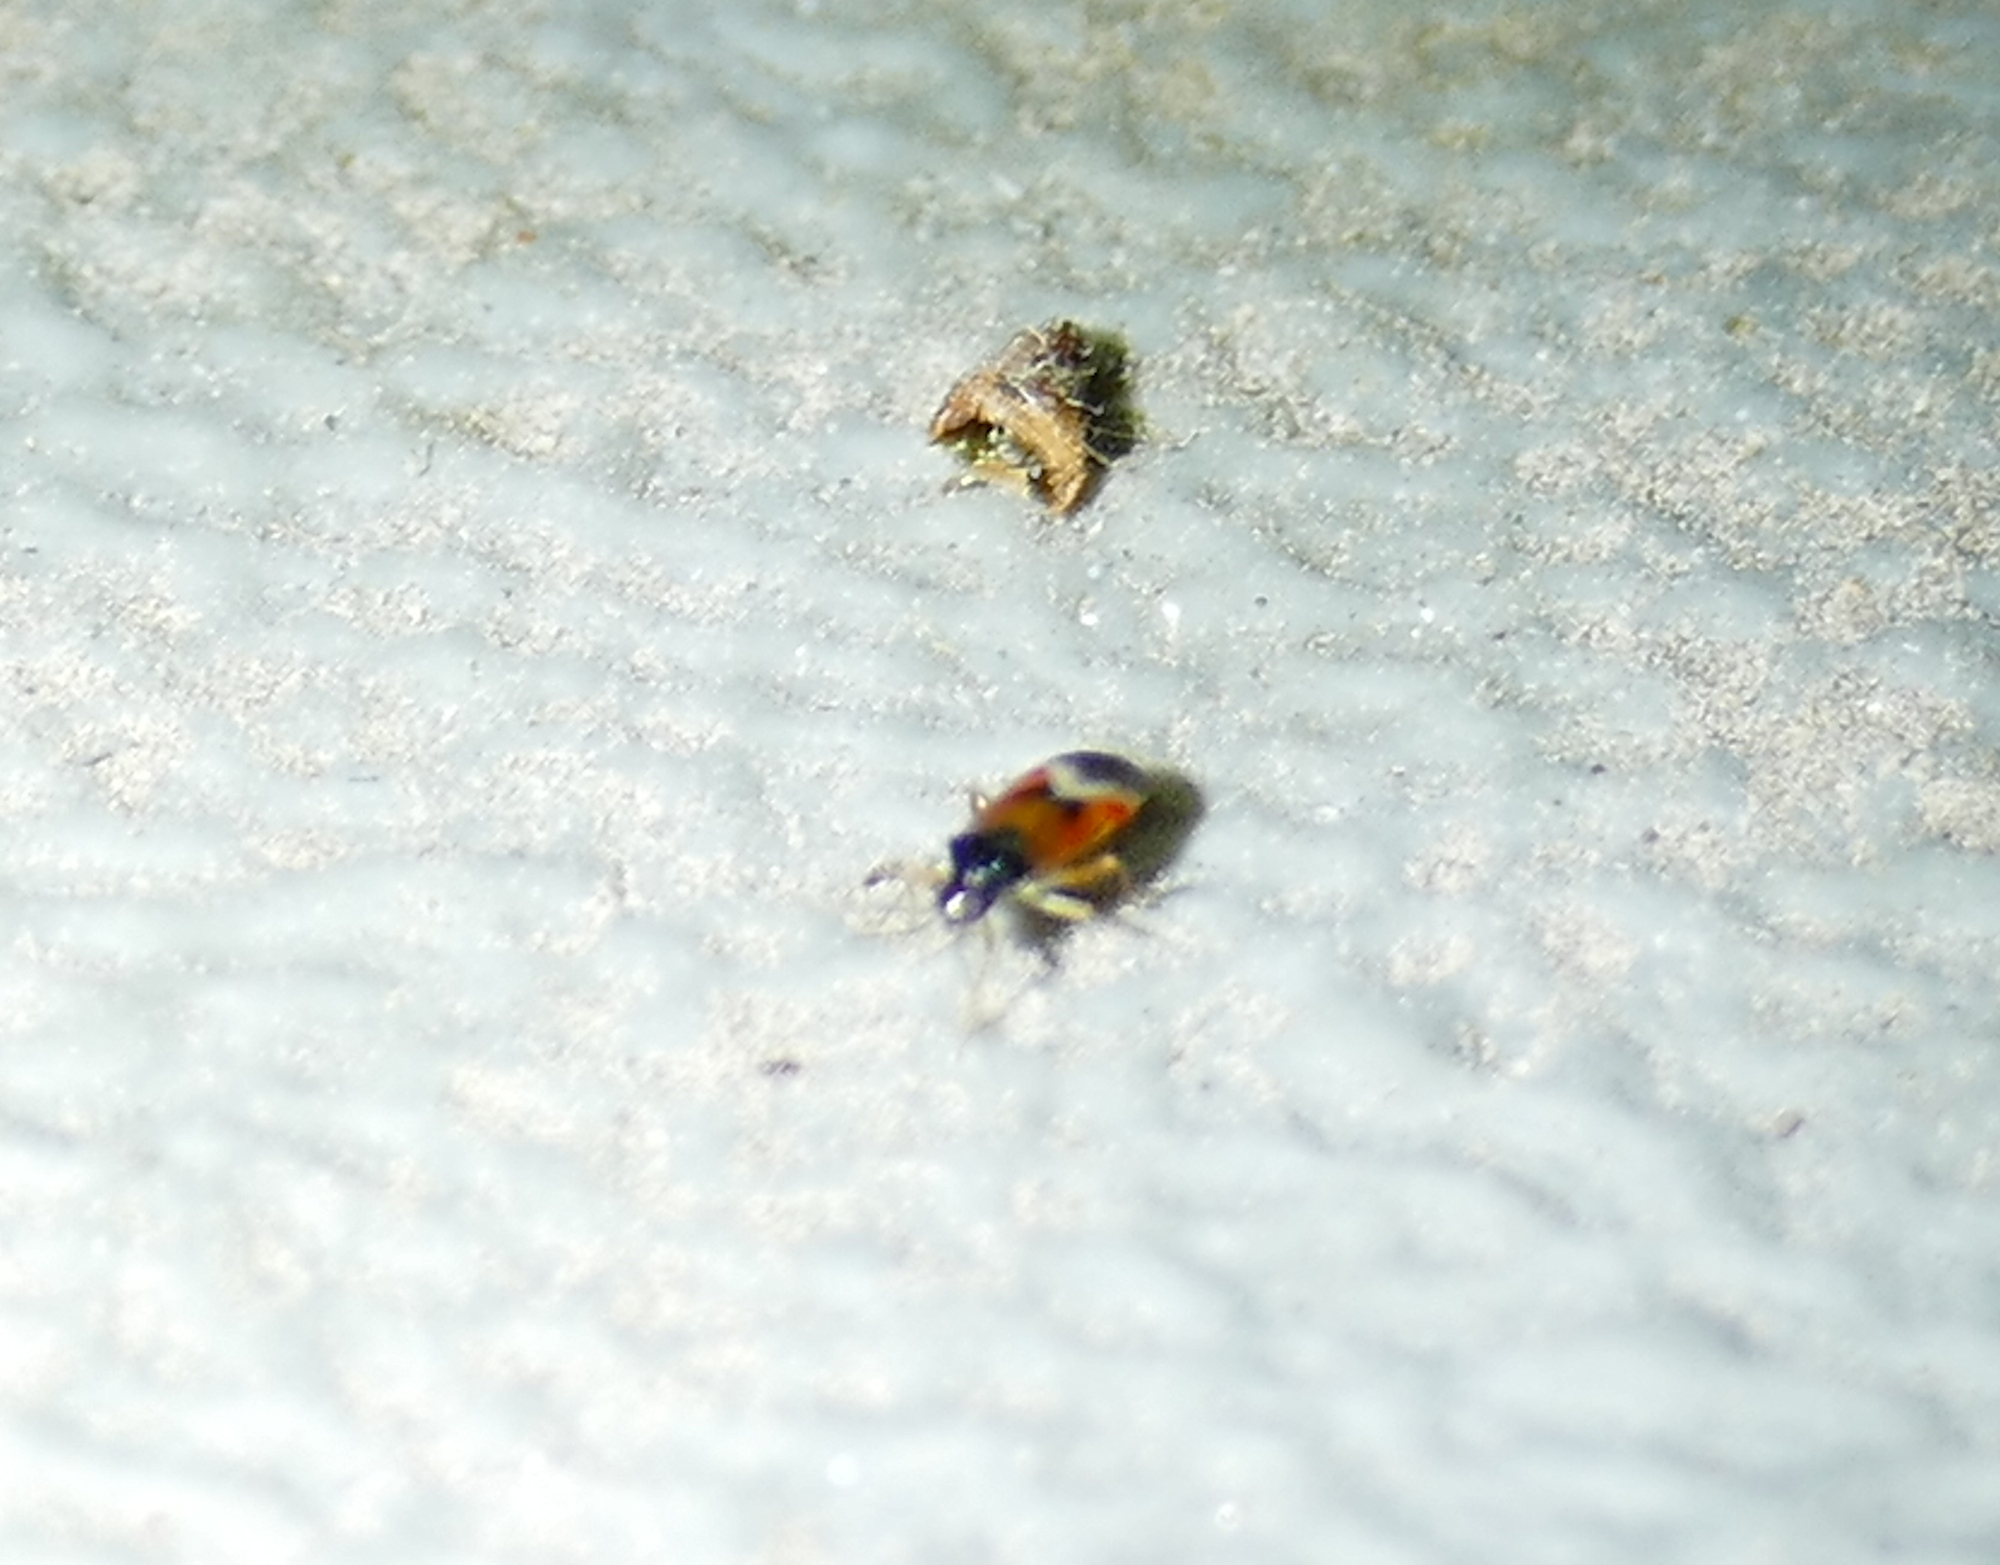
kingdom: Animalia
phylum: Arthropoda
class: Insecta
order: Hemiptera
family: Miridae
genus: Ceratocapsus
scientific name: Ceratocapsus apicalis
